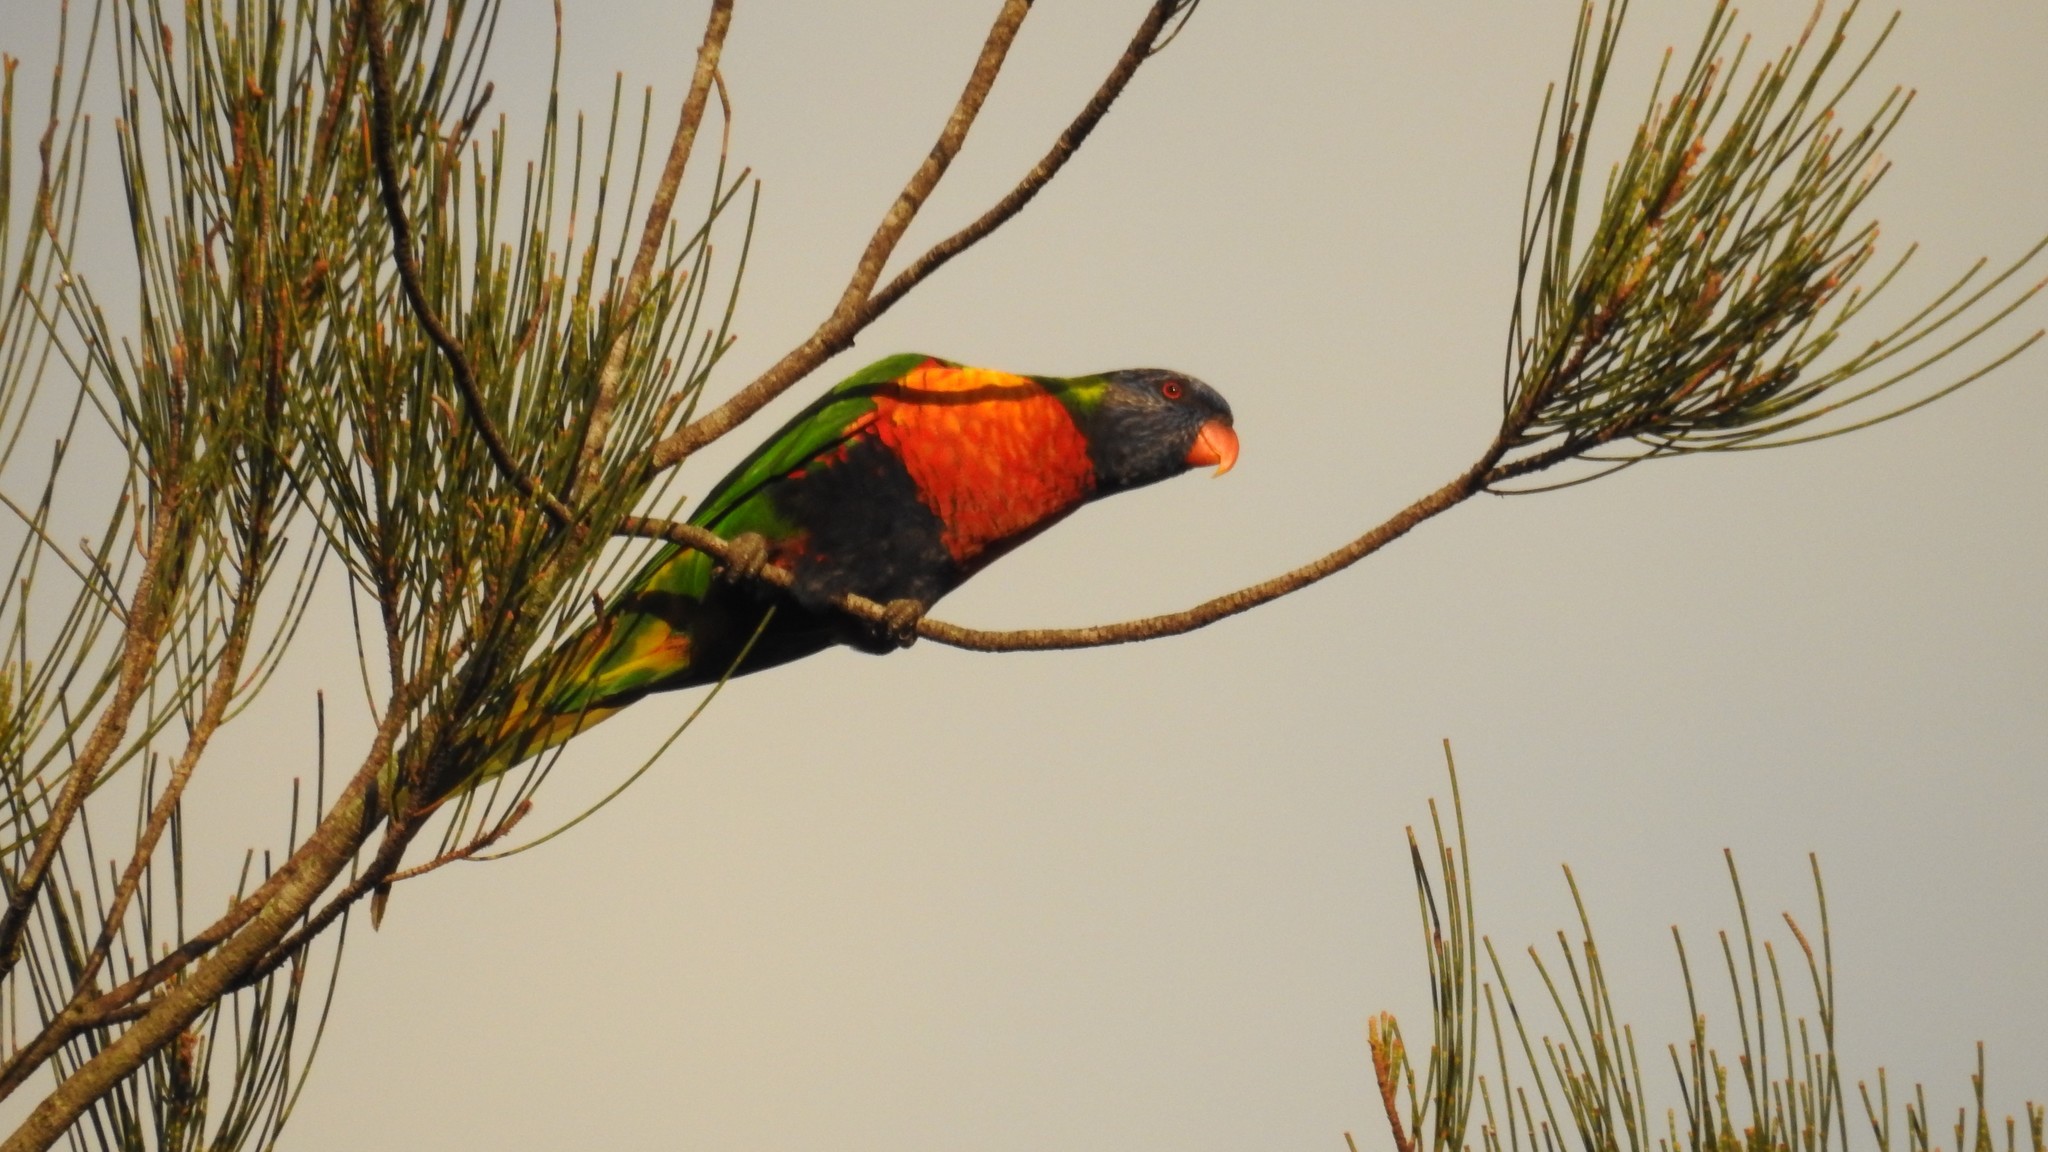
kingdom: Animalia
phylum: Chordata
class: Aves
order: Psittaciformes
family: Psittacidae
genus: Trichoglossus
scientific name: Trichoglossus haematodus
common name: Coconut lorikeet
